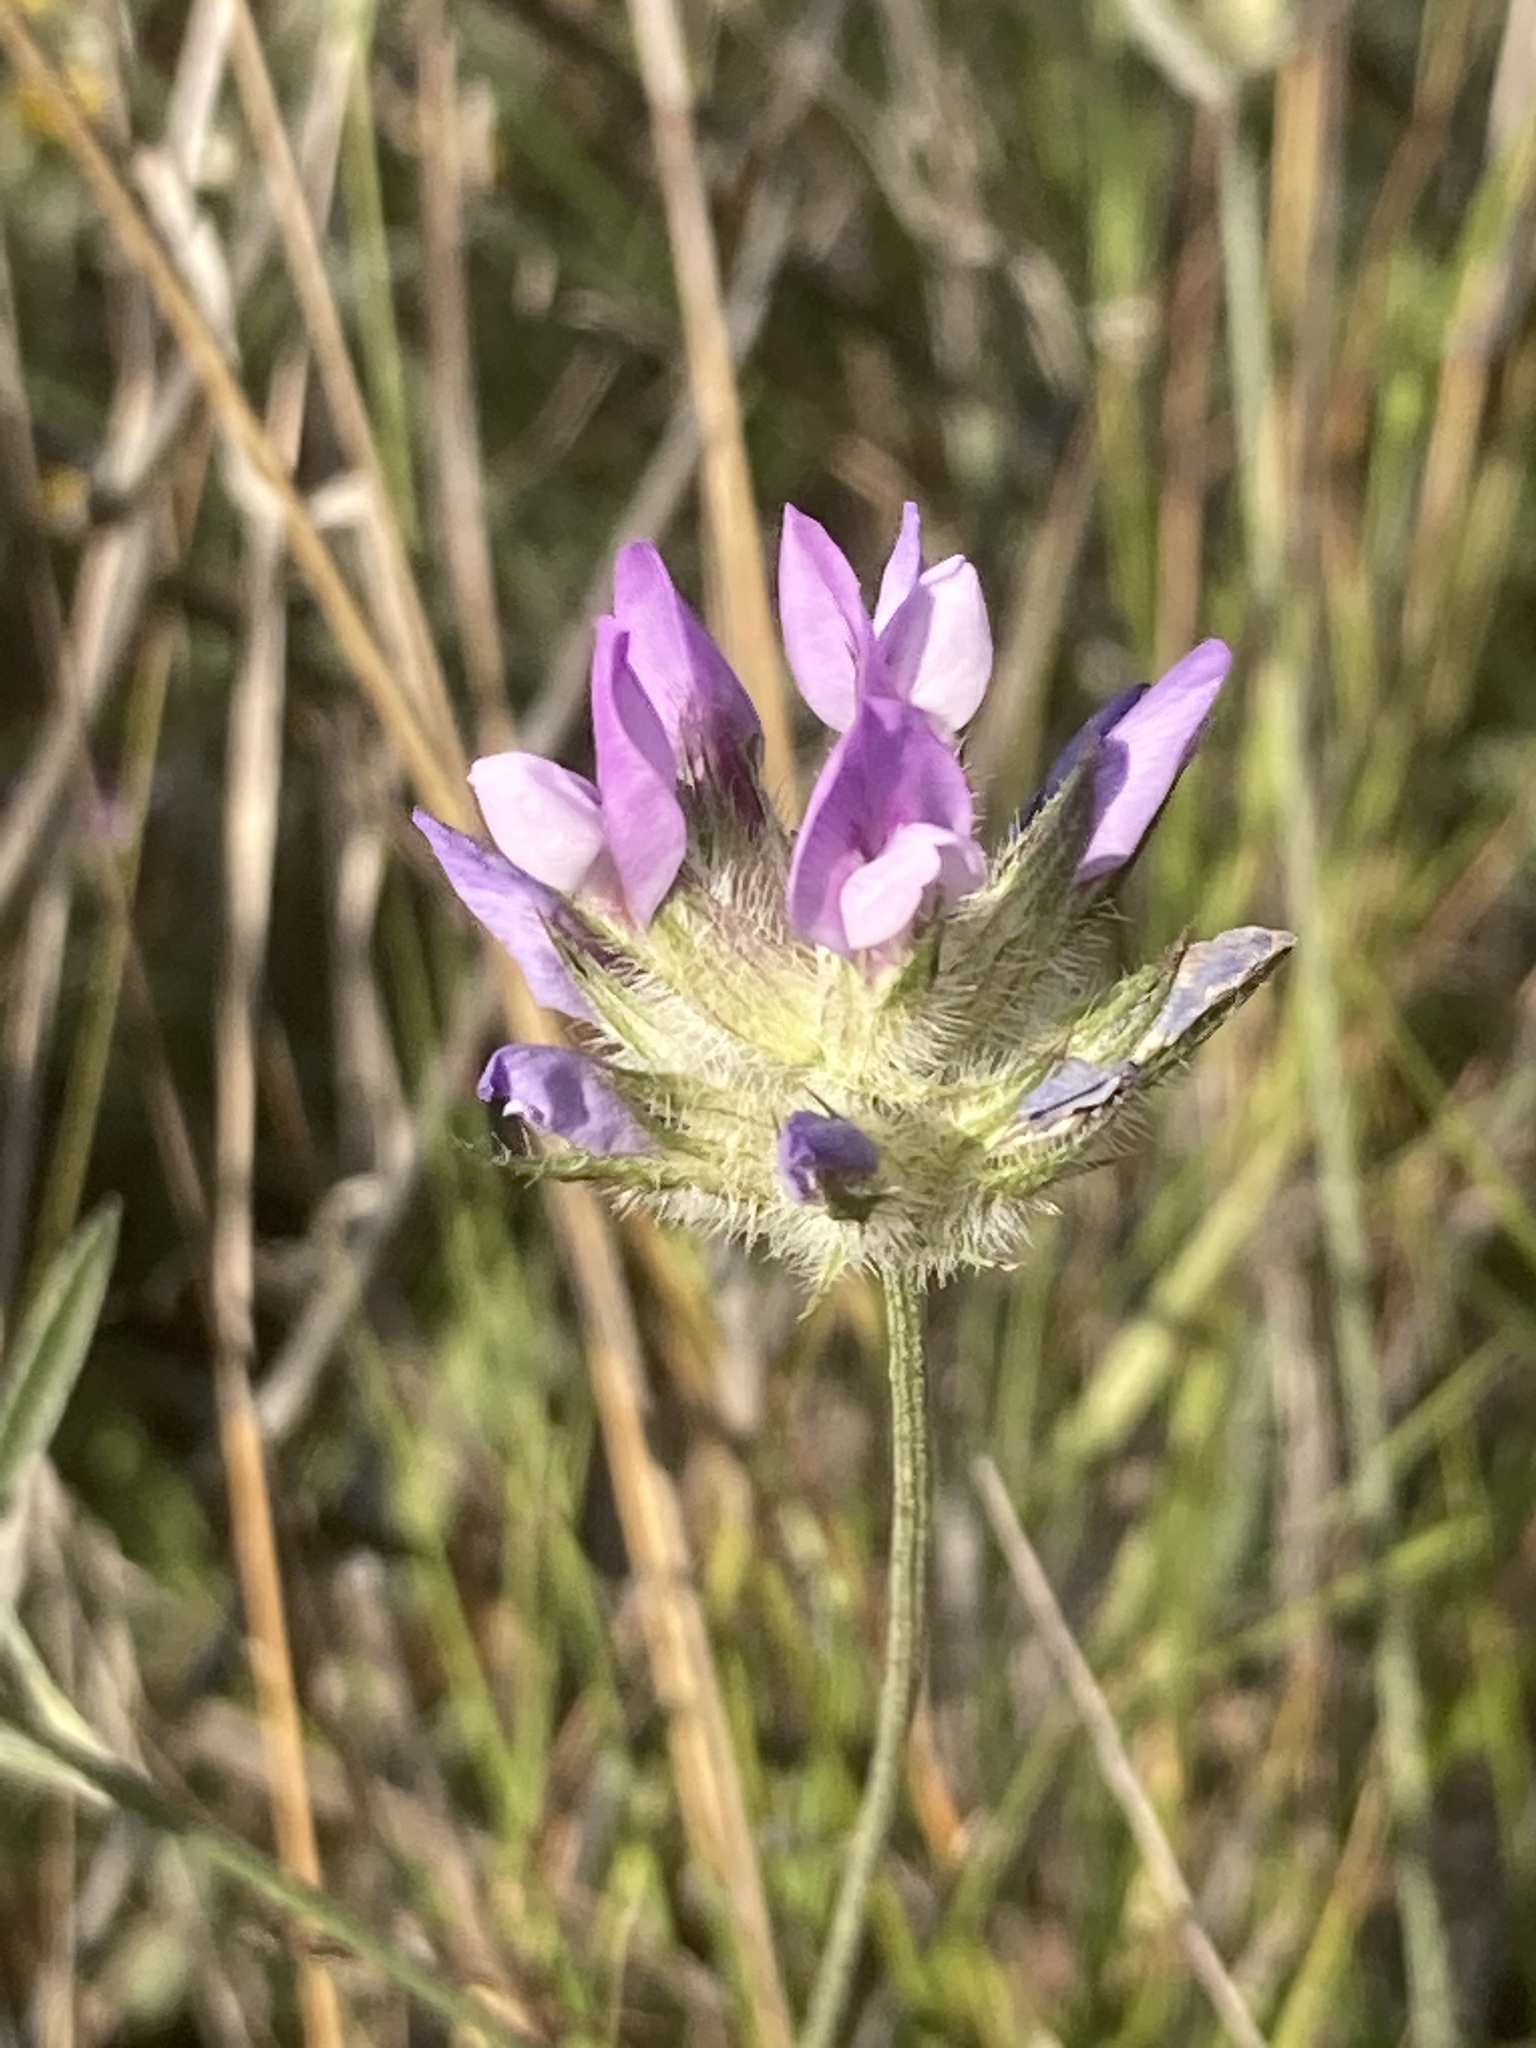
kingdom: Plantae
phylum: Tracheophyta
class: Magnoliopsida
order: Fabales
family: Fabaceae
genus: Bituminaria
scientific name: Bituminaria bituminosa
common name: Arabian pea
